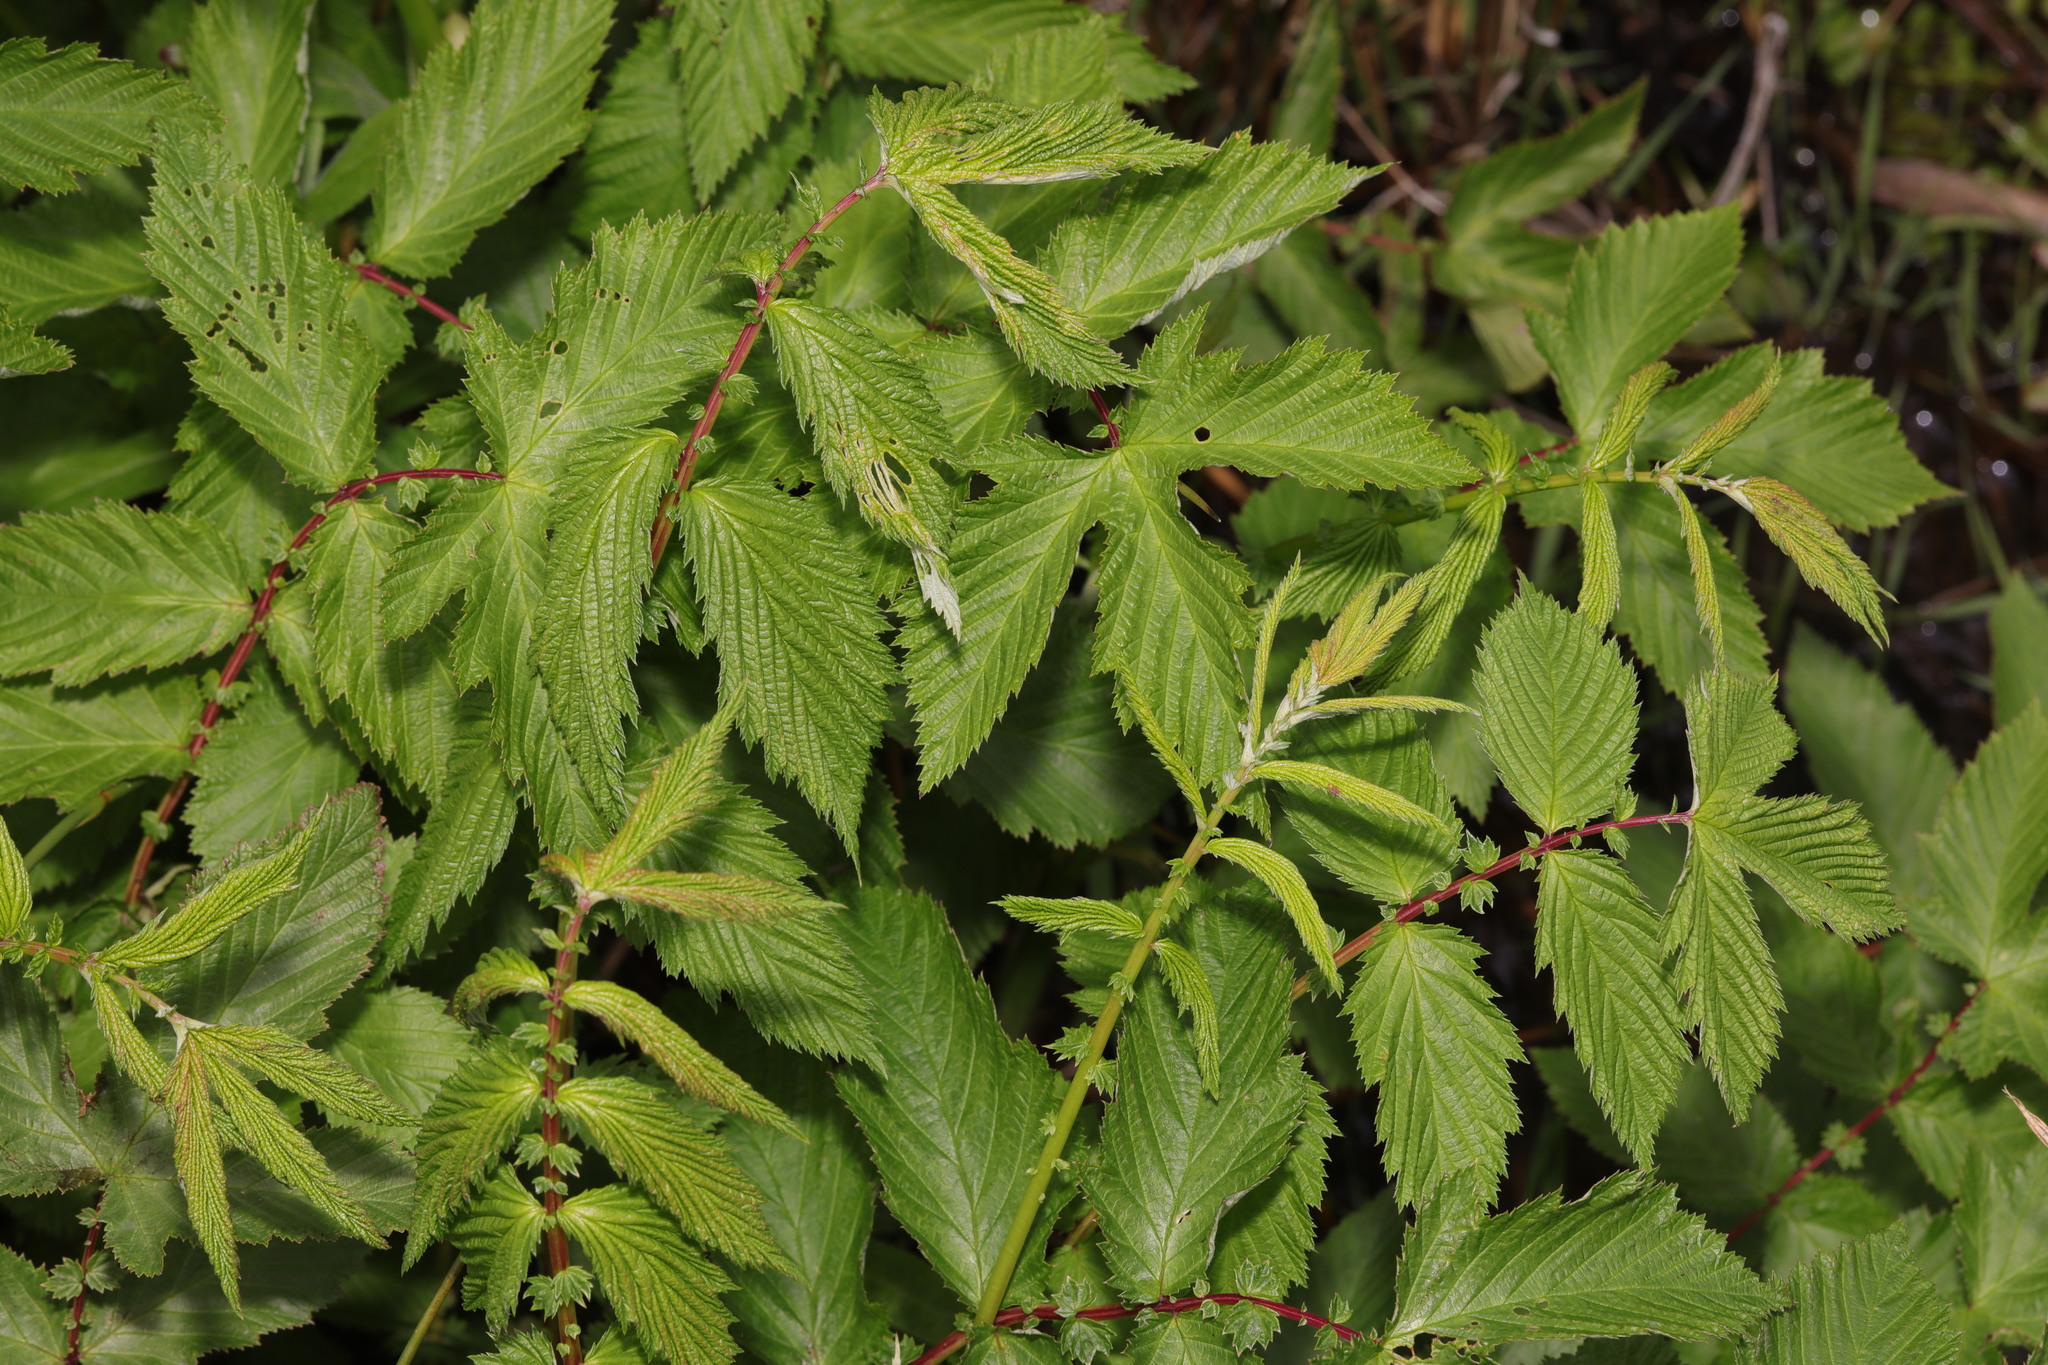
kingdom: Plantae
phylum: Tracheophyta
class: Magnoliopsida
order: Rosales
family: Rosaceae
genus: Filipendula
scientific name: Filipendula ulmaria
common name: Meadowsweet
